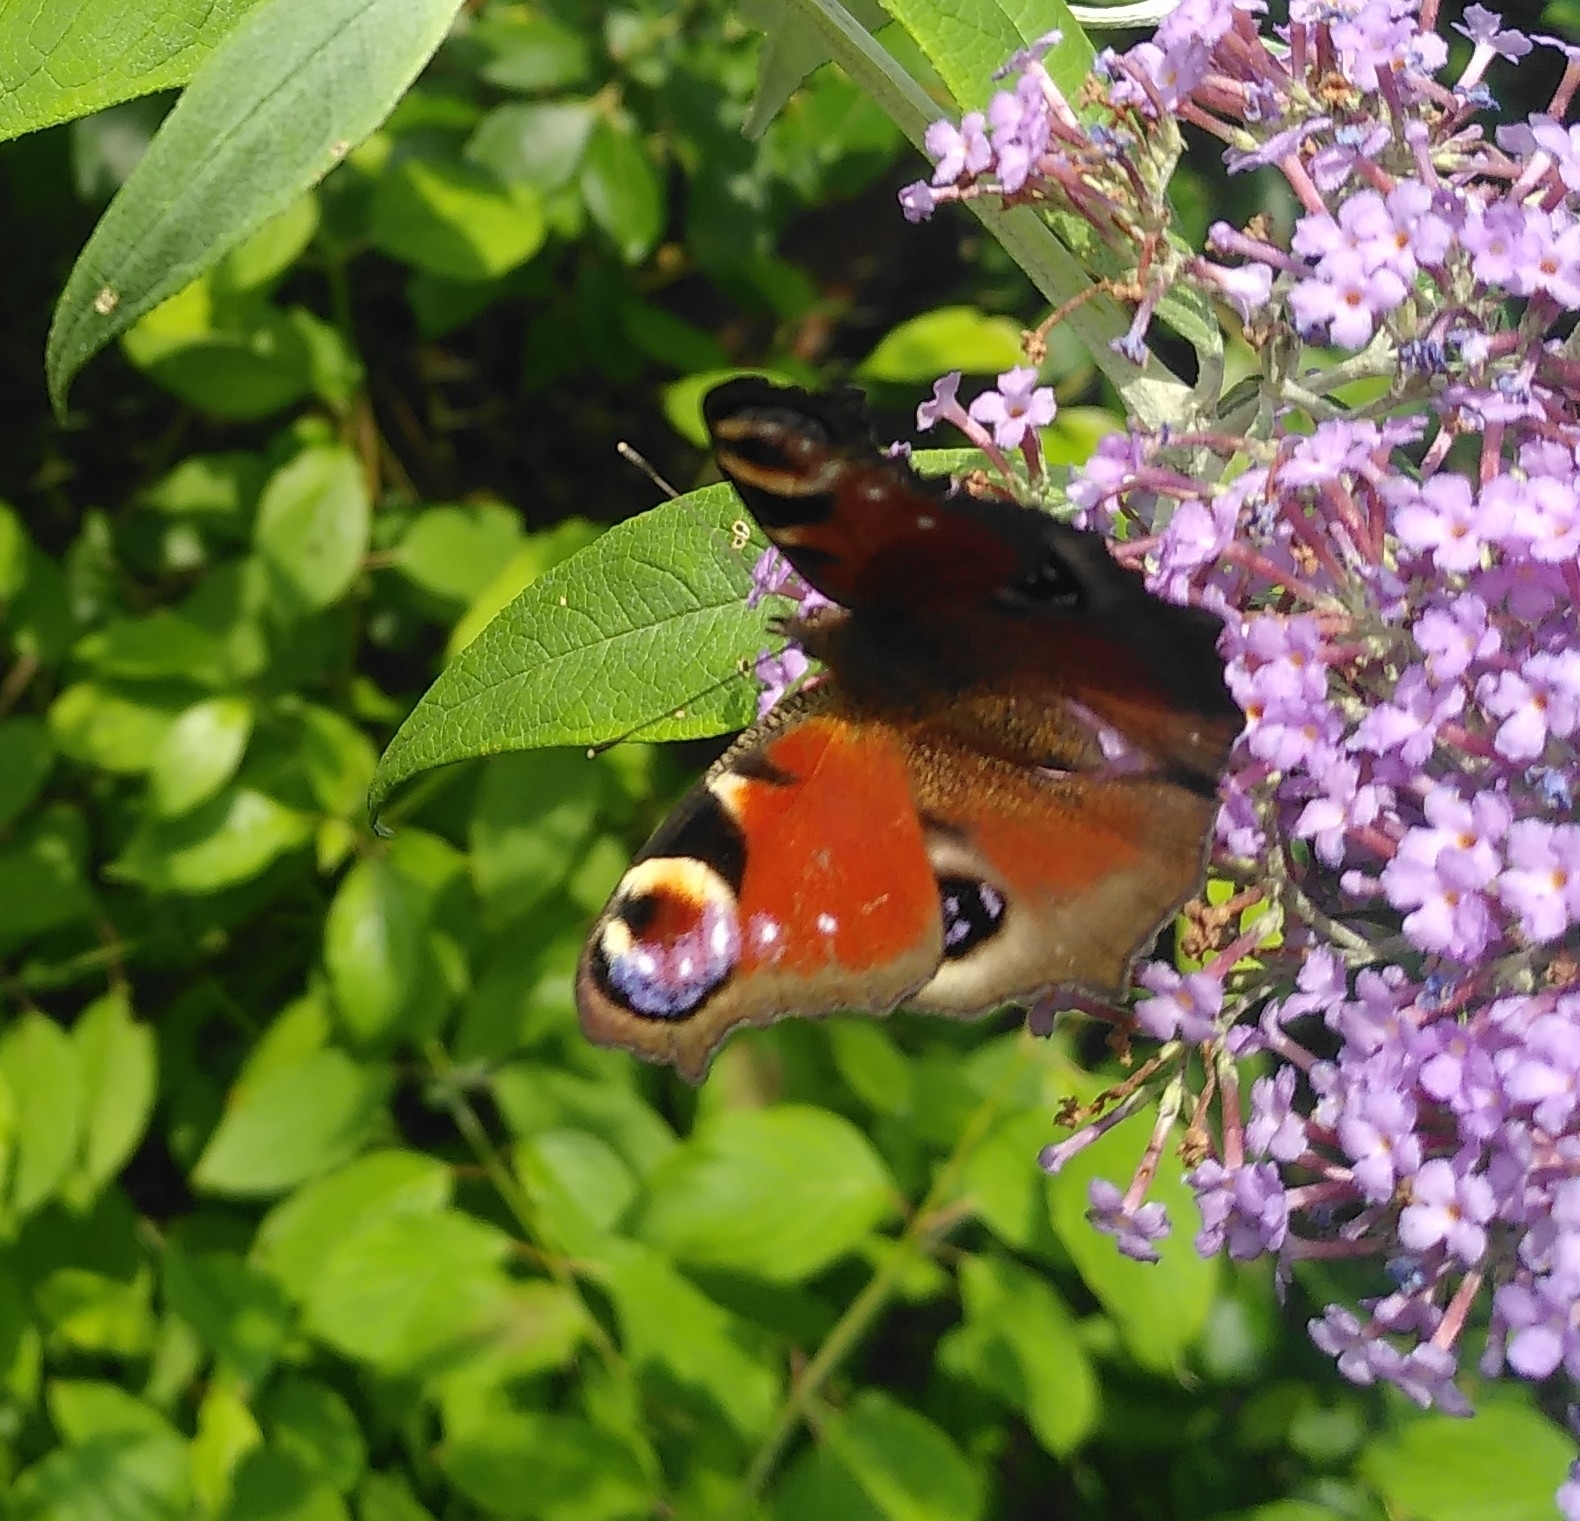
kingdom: Animalia
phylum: Arthropoda
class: Insecta
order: Lepidoptera
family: Nymphalidae
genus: Aglais
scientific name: Aglais io
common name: Peacock
